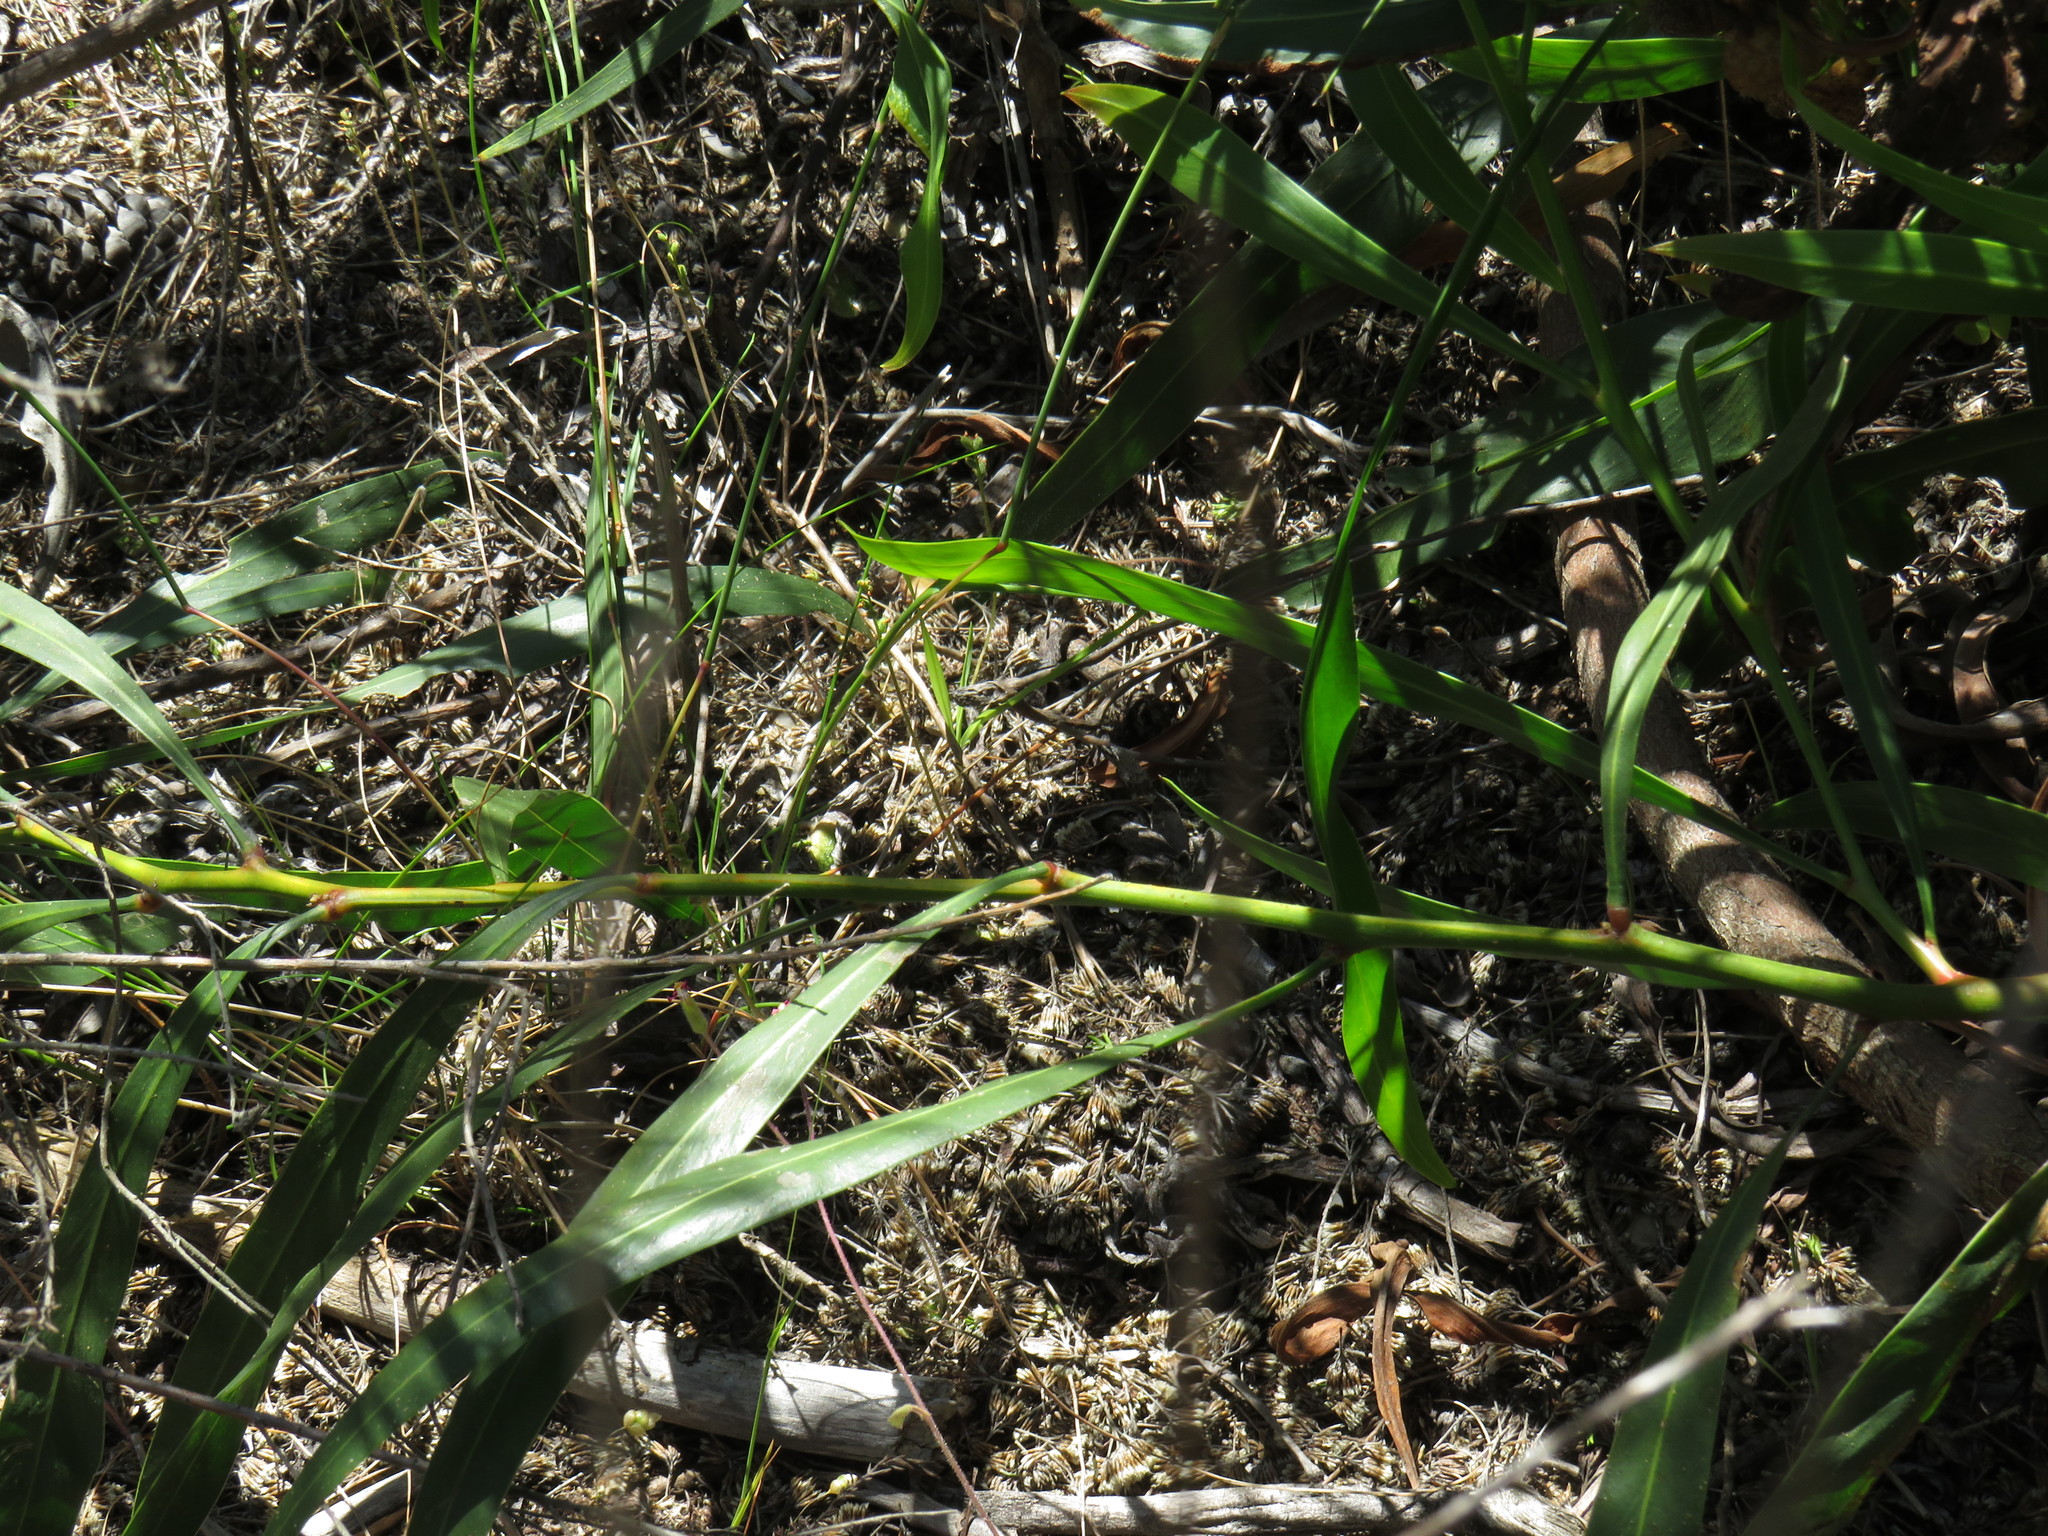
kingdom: Plantae
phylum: Tracheophyta
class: Magnoliopsida
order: Fabales
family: Fabaceae
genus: Acacia
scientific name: Acacia saligna
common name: Orange wattle
